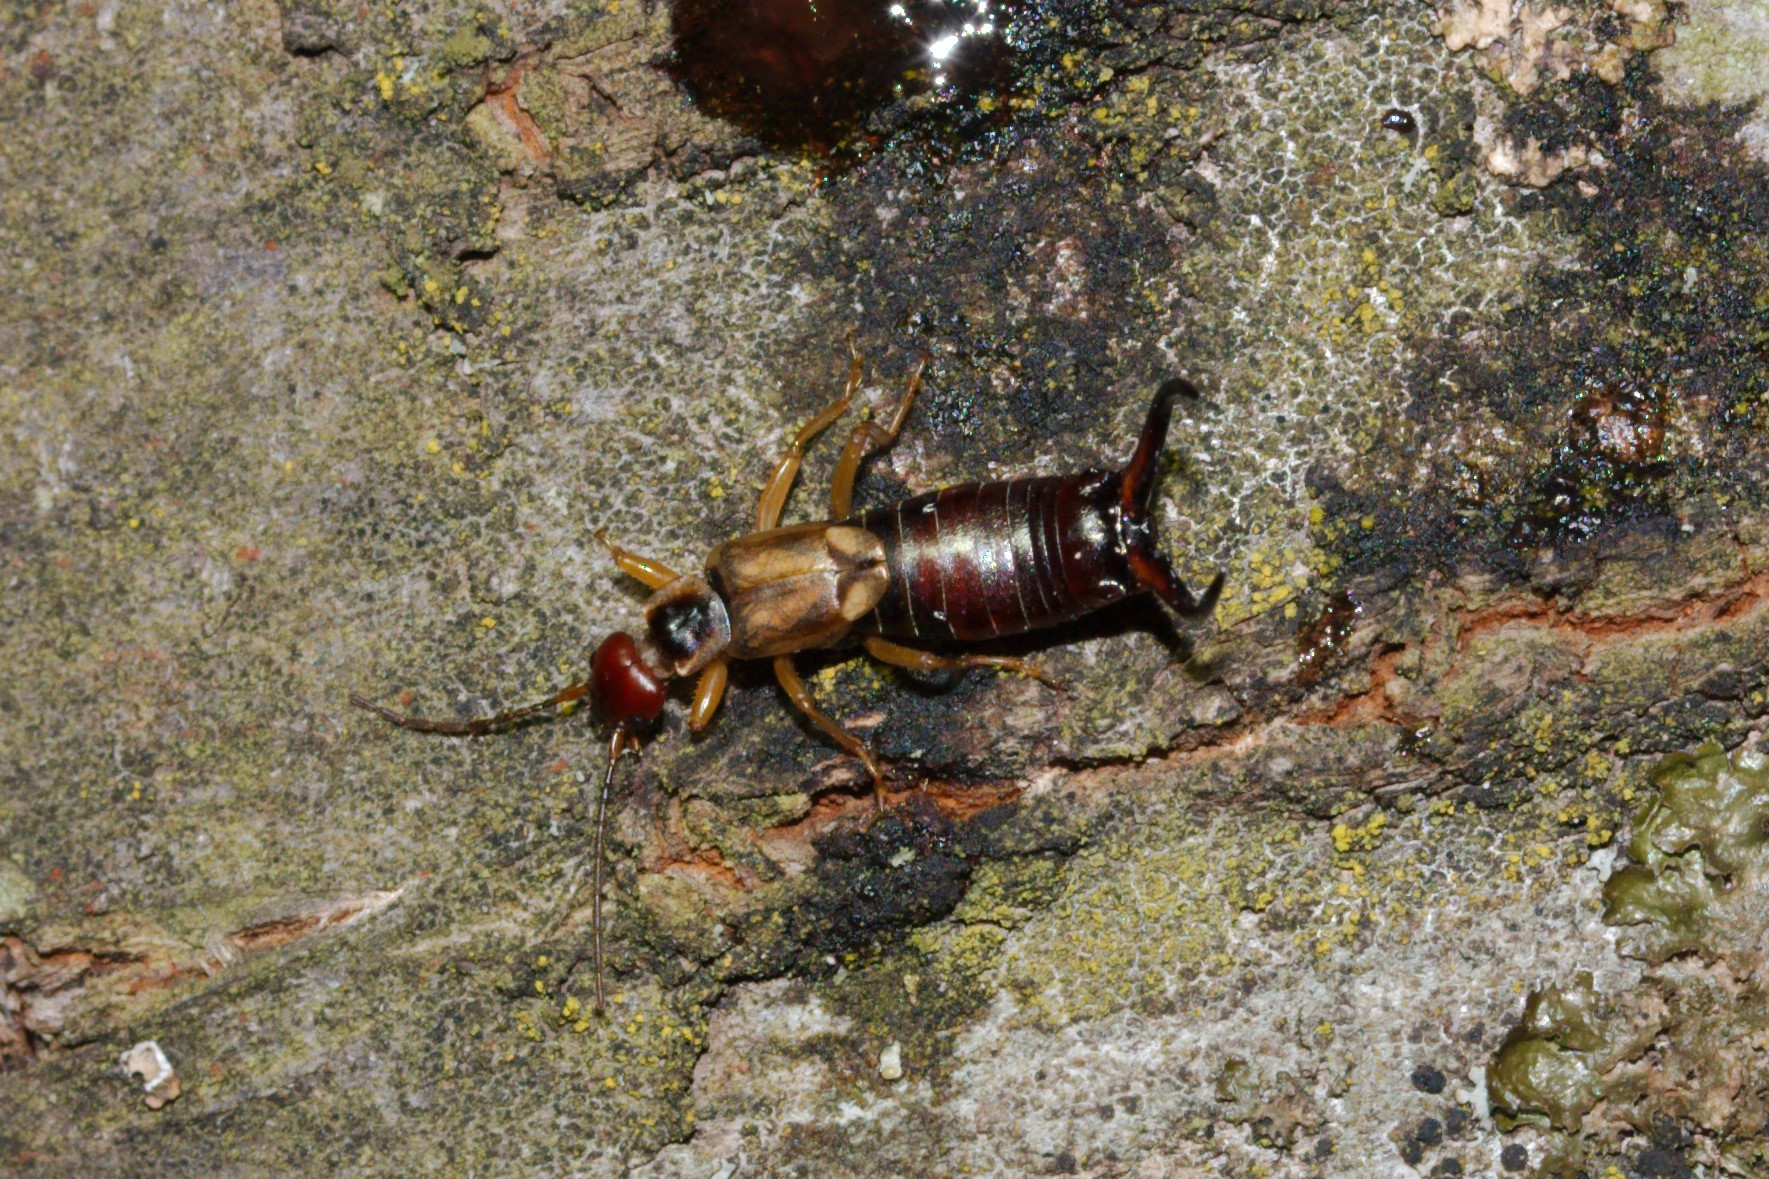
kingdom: Animalia
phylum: Arthropoda
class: Insecta
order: Dermaptera
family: Forficulidae
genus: Forficula
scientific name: Forficula
